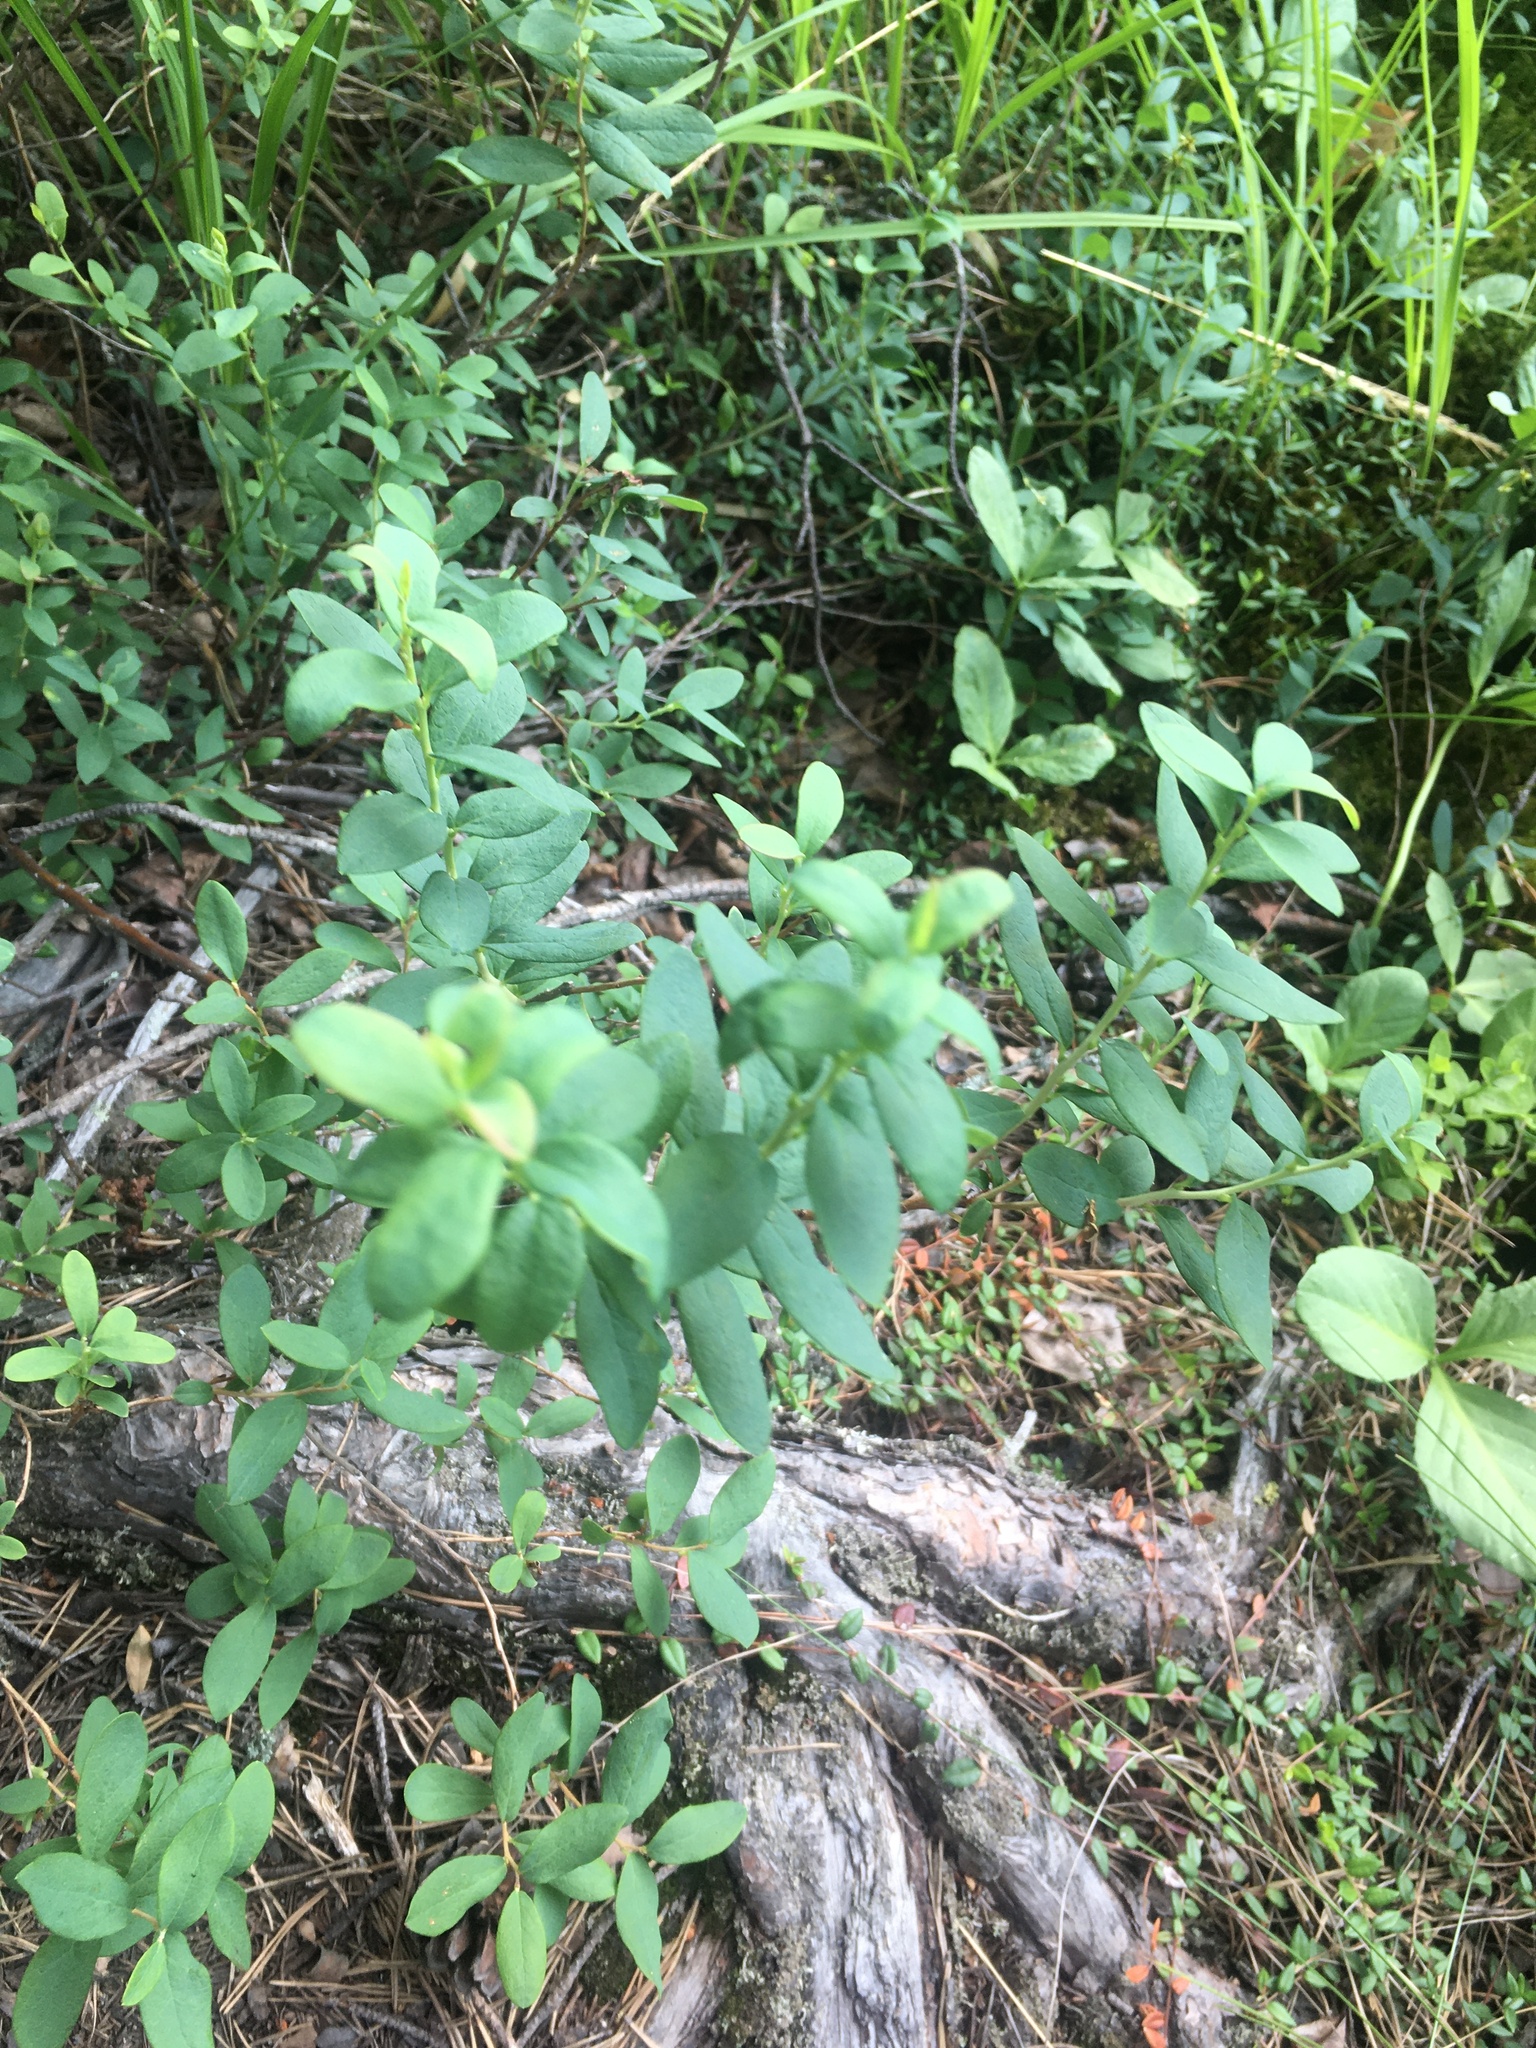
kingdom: Plantae
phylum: Tracheophyta
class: Magnoliopsida
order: Ericales
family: Ericaceae
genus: Vaccinium
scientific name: Vaccinium uliginosum
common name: Bog bilberry
